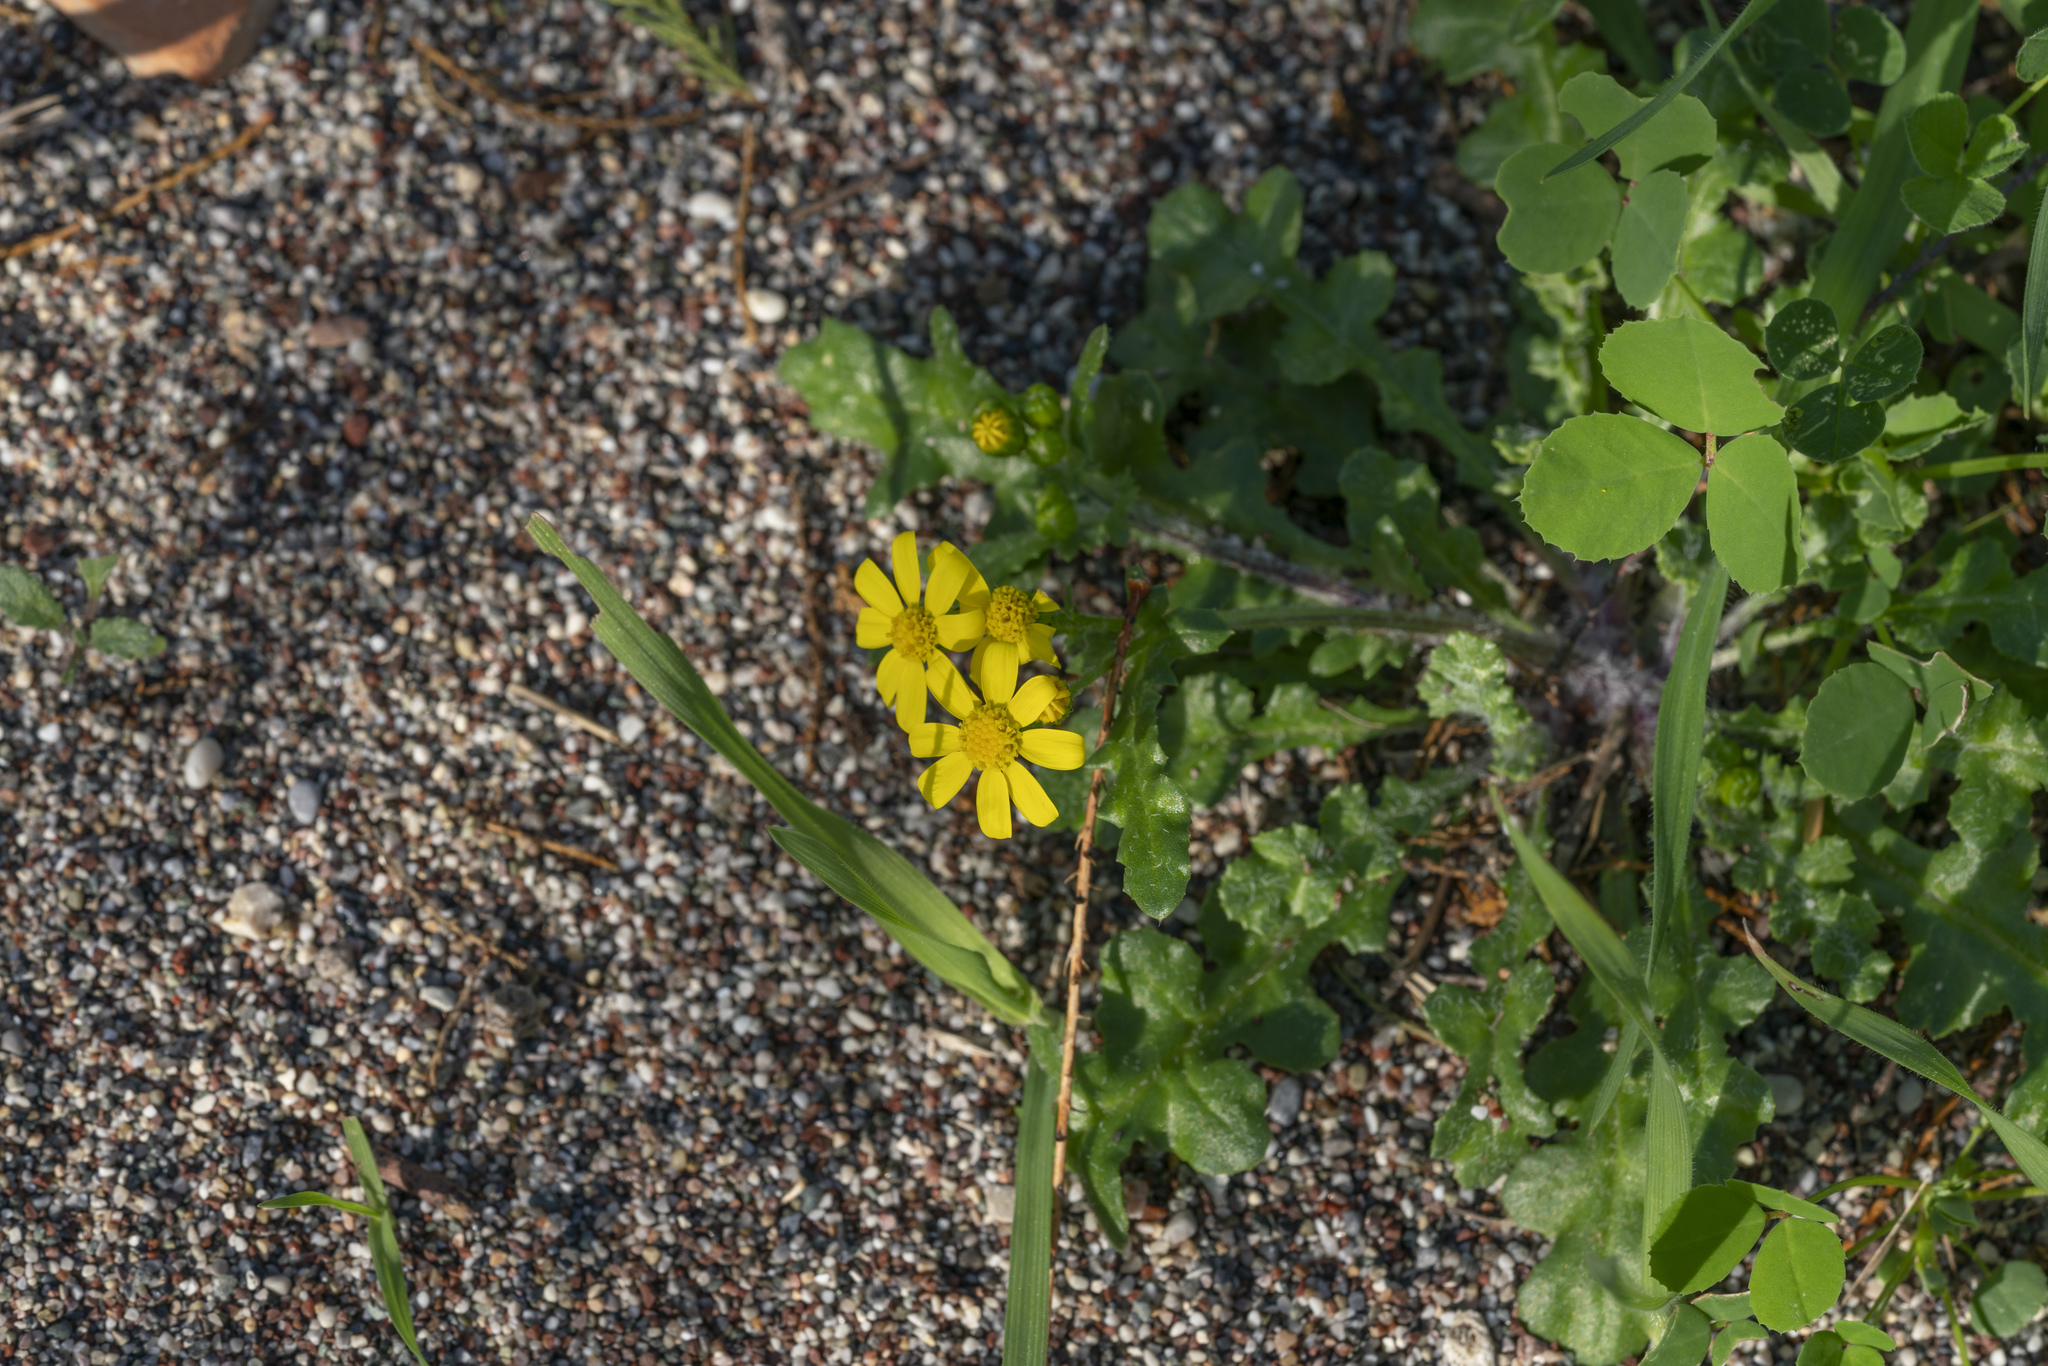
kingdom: Plantae
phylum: Tracheophyta
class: Magnoliopsida
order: Asterales
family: Asteraceae
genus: Senecio
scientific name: Senecio vernalis
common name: Eastern groundsel
